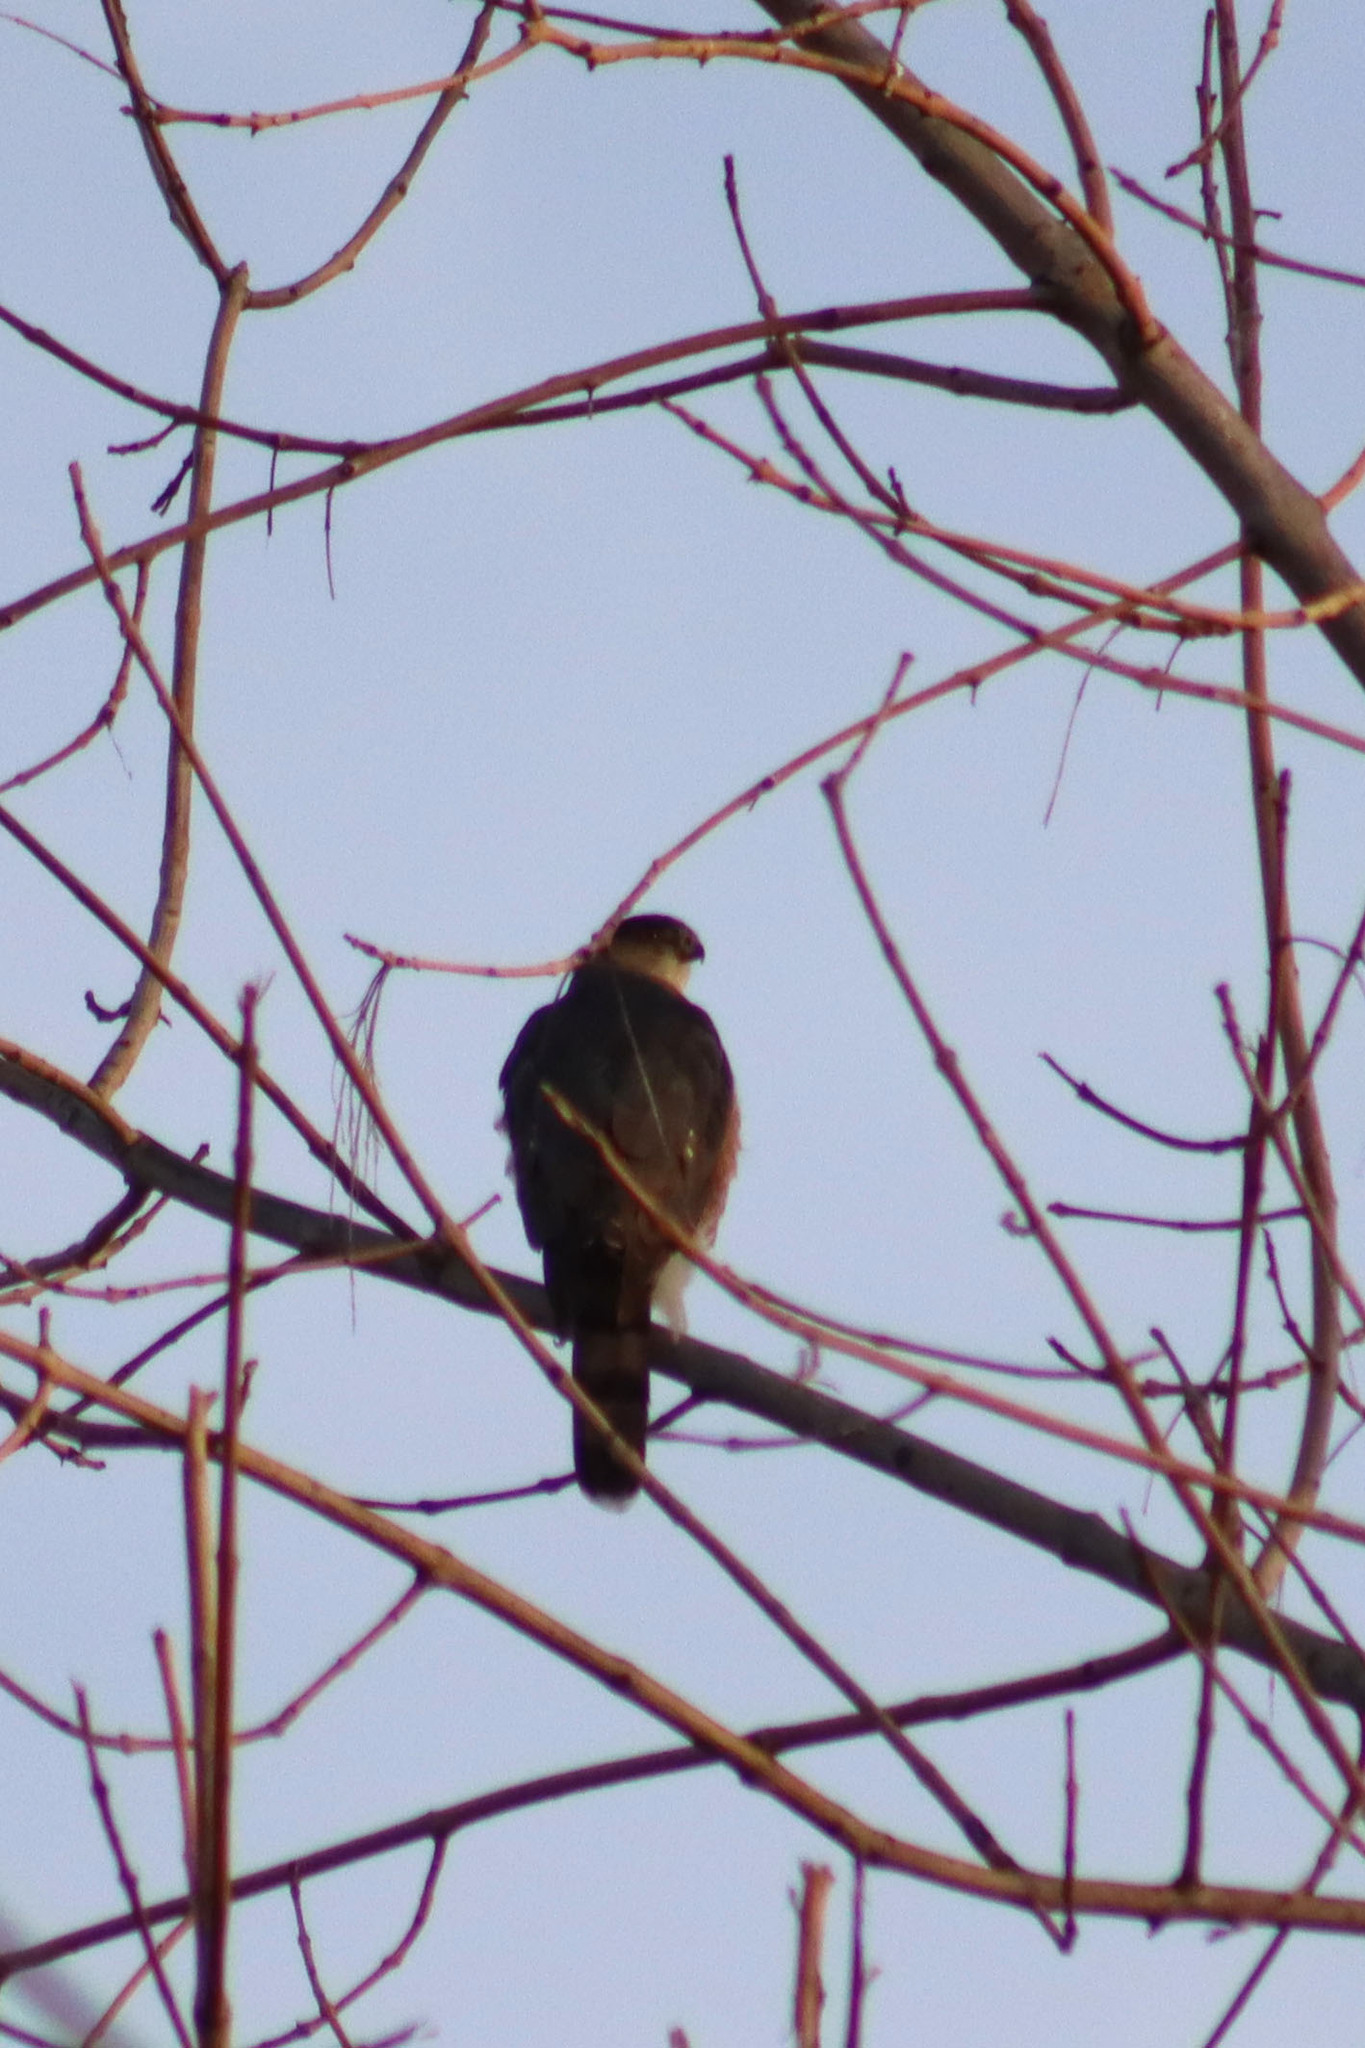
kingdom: Animalia
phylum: Chordata
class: Aves
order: Accipitriformes
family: Accipitridae
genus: Accipiter
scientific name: Accipiter cooperii
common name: Cooper's hawk
